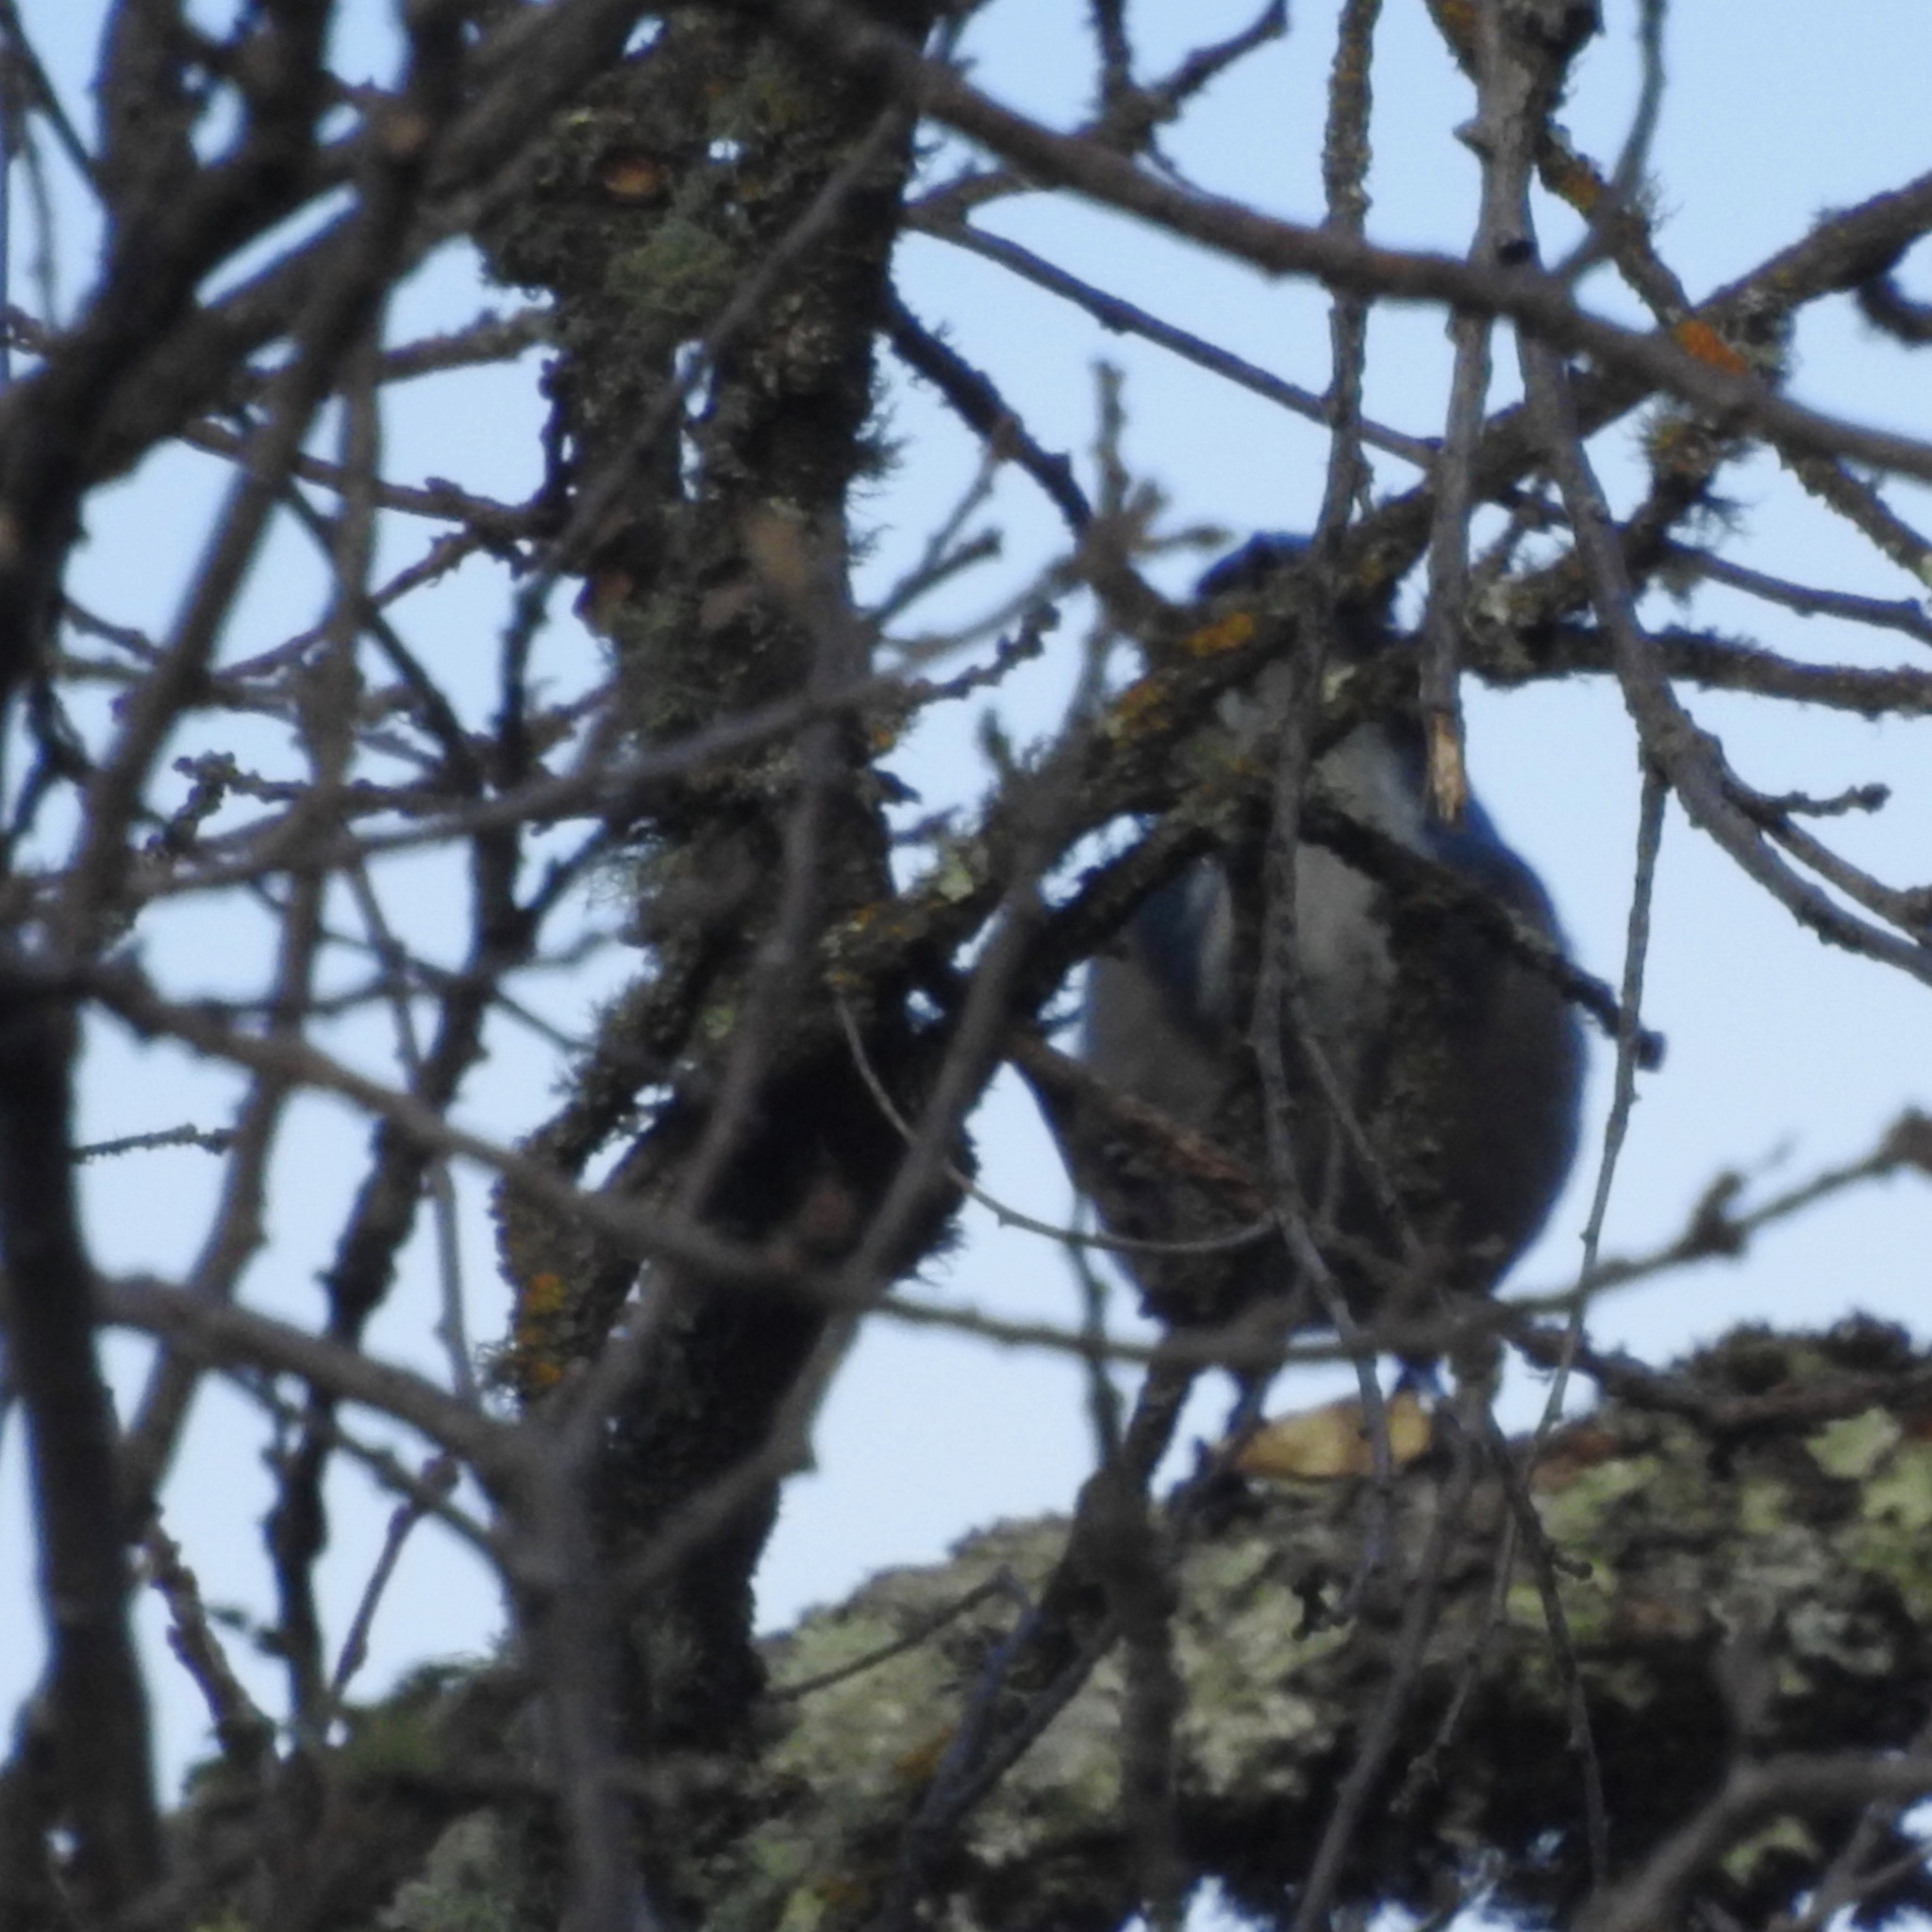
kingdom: Animalia
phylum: Chordata
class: Aves
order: Passeriformes
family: Corvidae
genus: Aphelocoma
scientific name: Aphelocoma californica
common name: California scrub-jay
